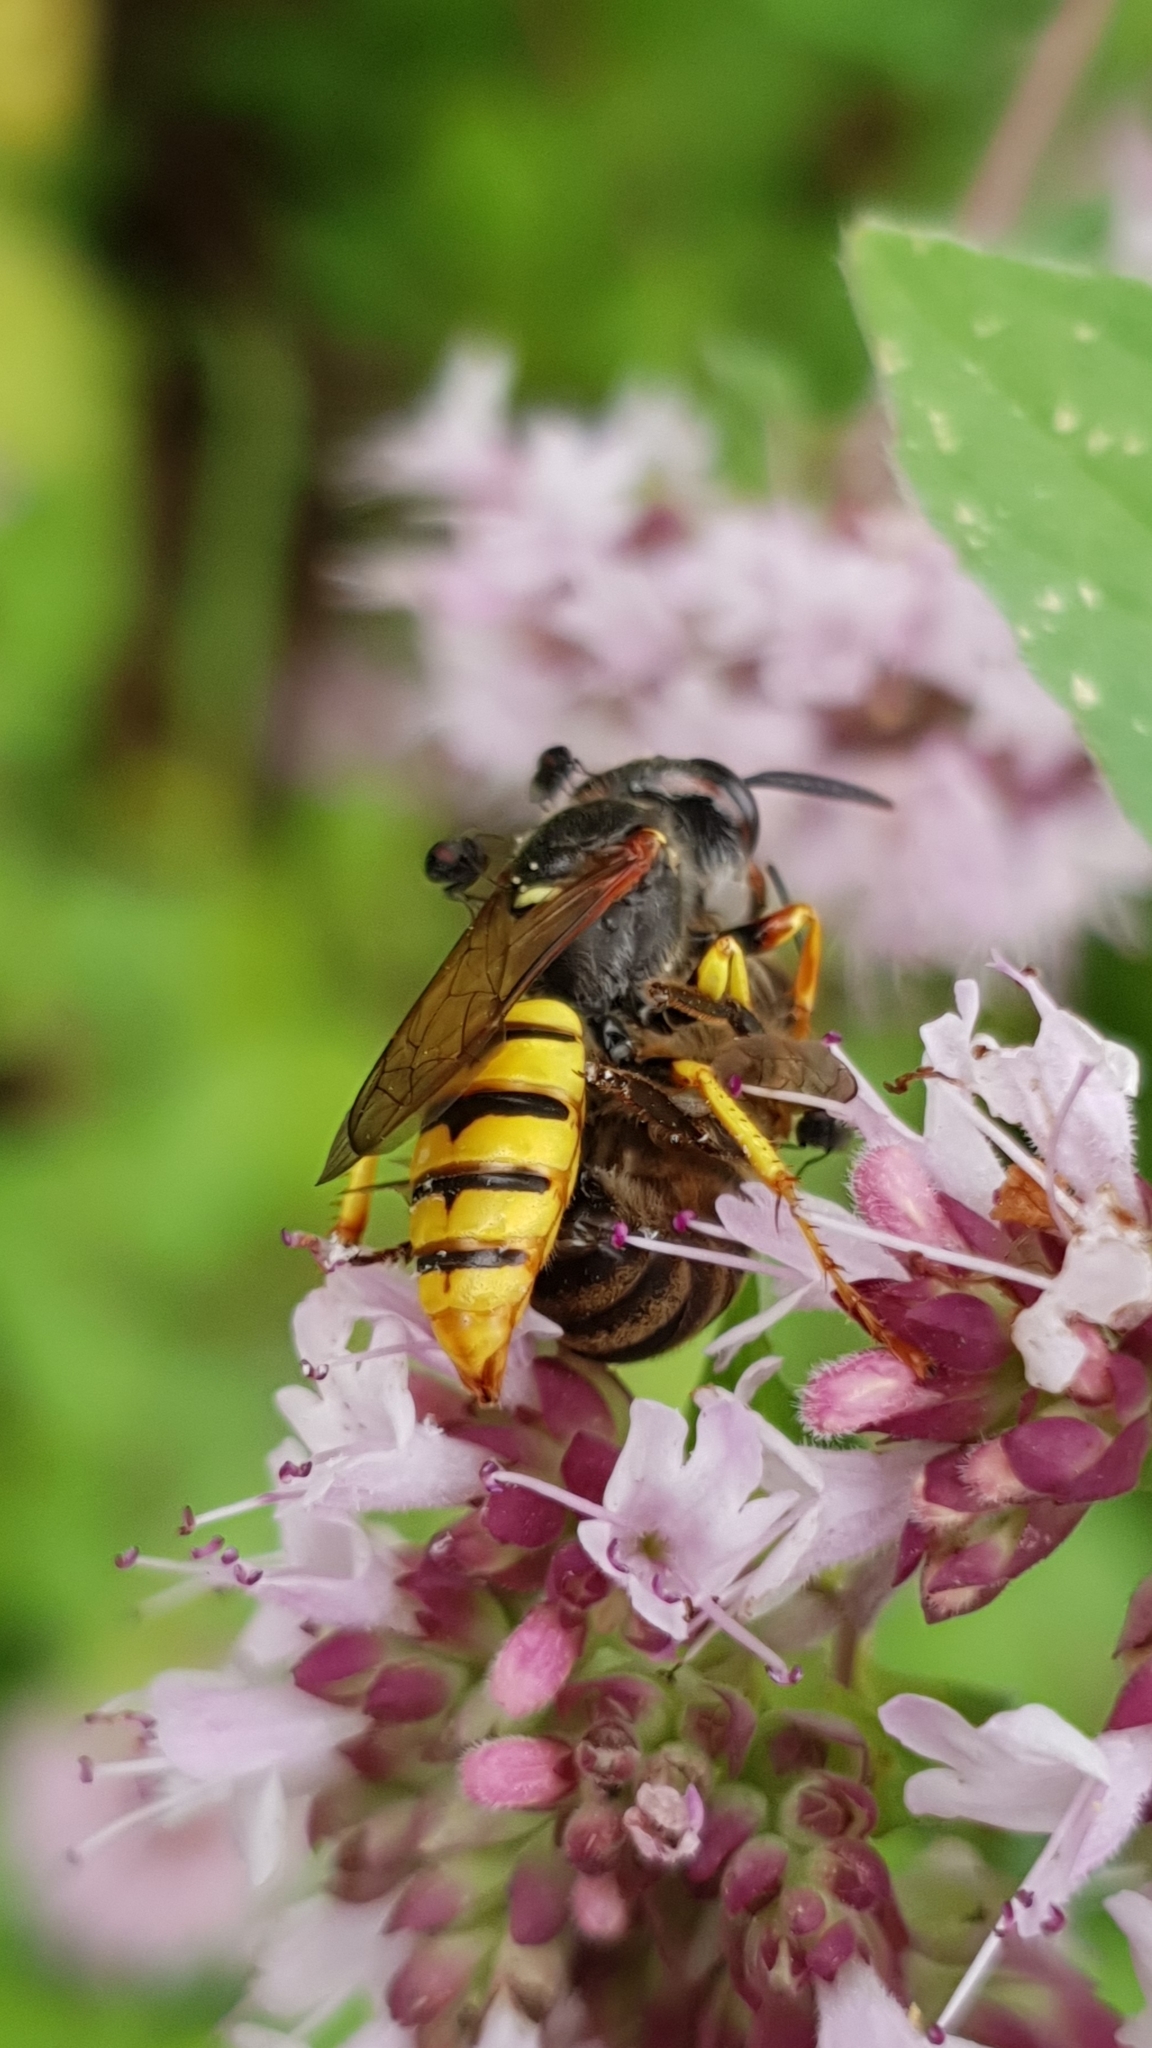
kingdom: Animalia
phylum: Arthropoda
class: Insecta
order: Hymenoptera
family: Crabronidae
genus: Philanthus
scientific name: Philanthus triangulum
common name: Bee wolf
